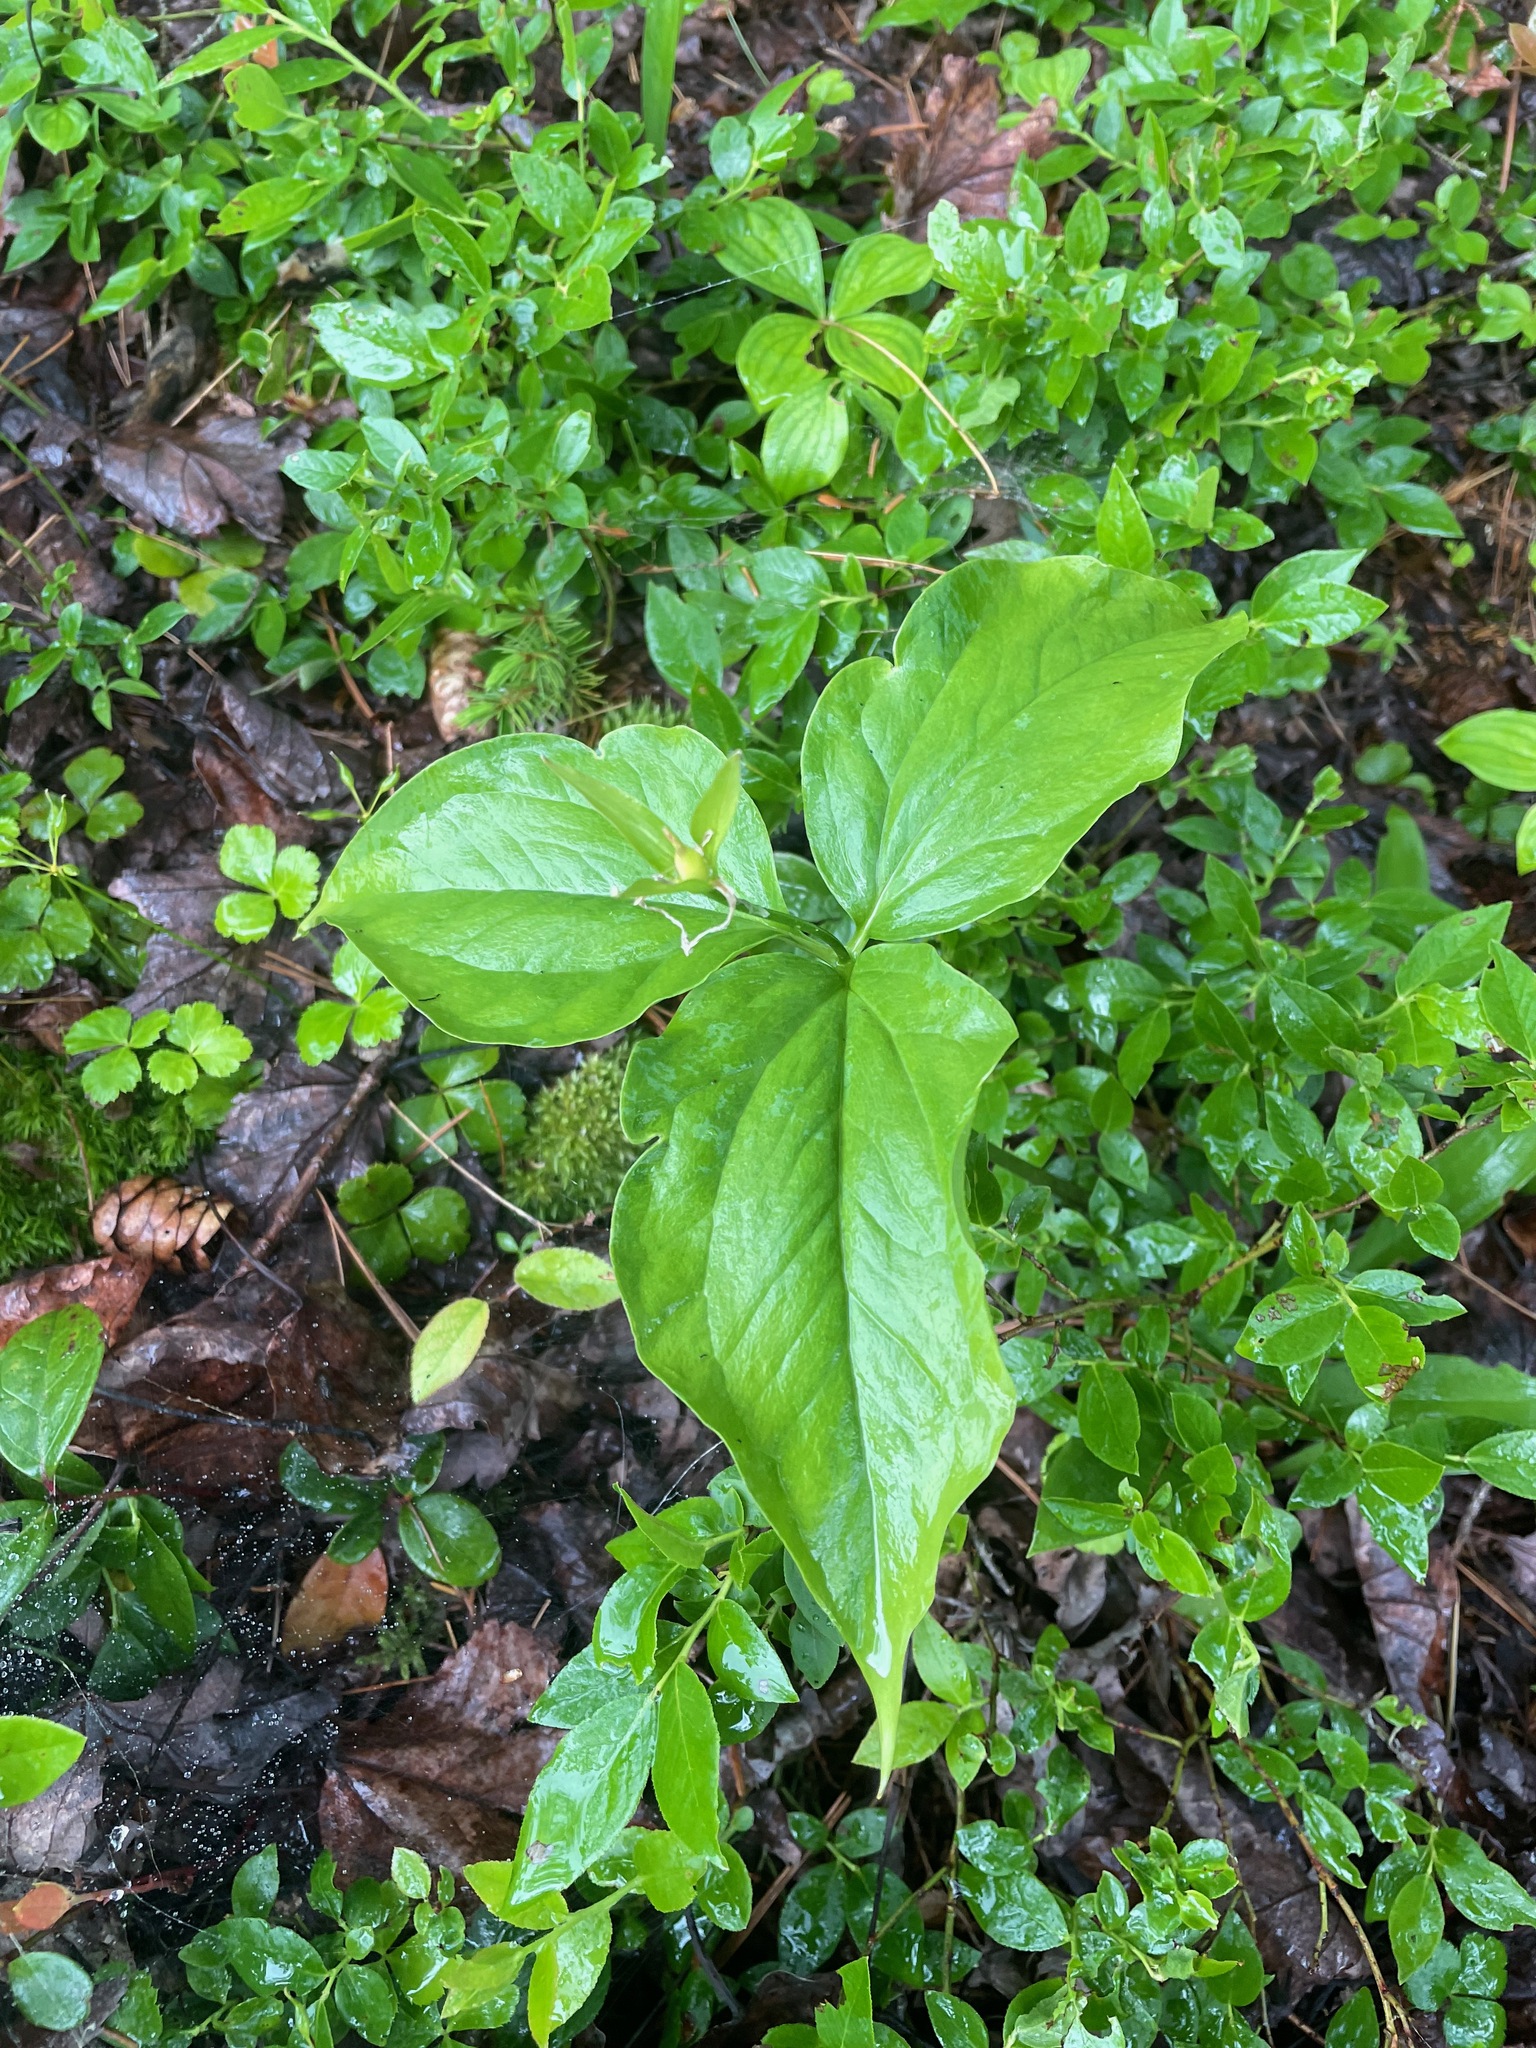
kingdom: Plantae
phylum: Tracheophyta
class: Liliopsida
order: Liliales
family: Melanthiaceae
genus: Trillium
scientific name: Trillium undulatum
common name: Paint trillium
